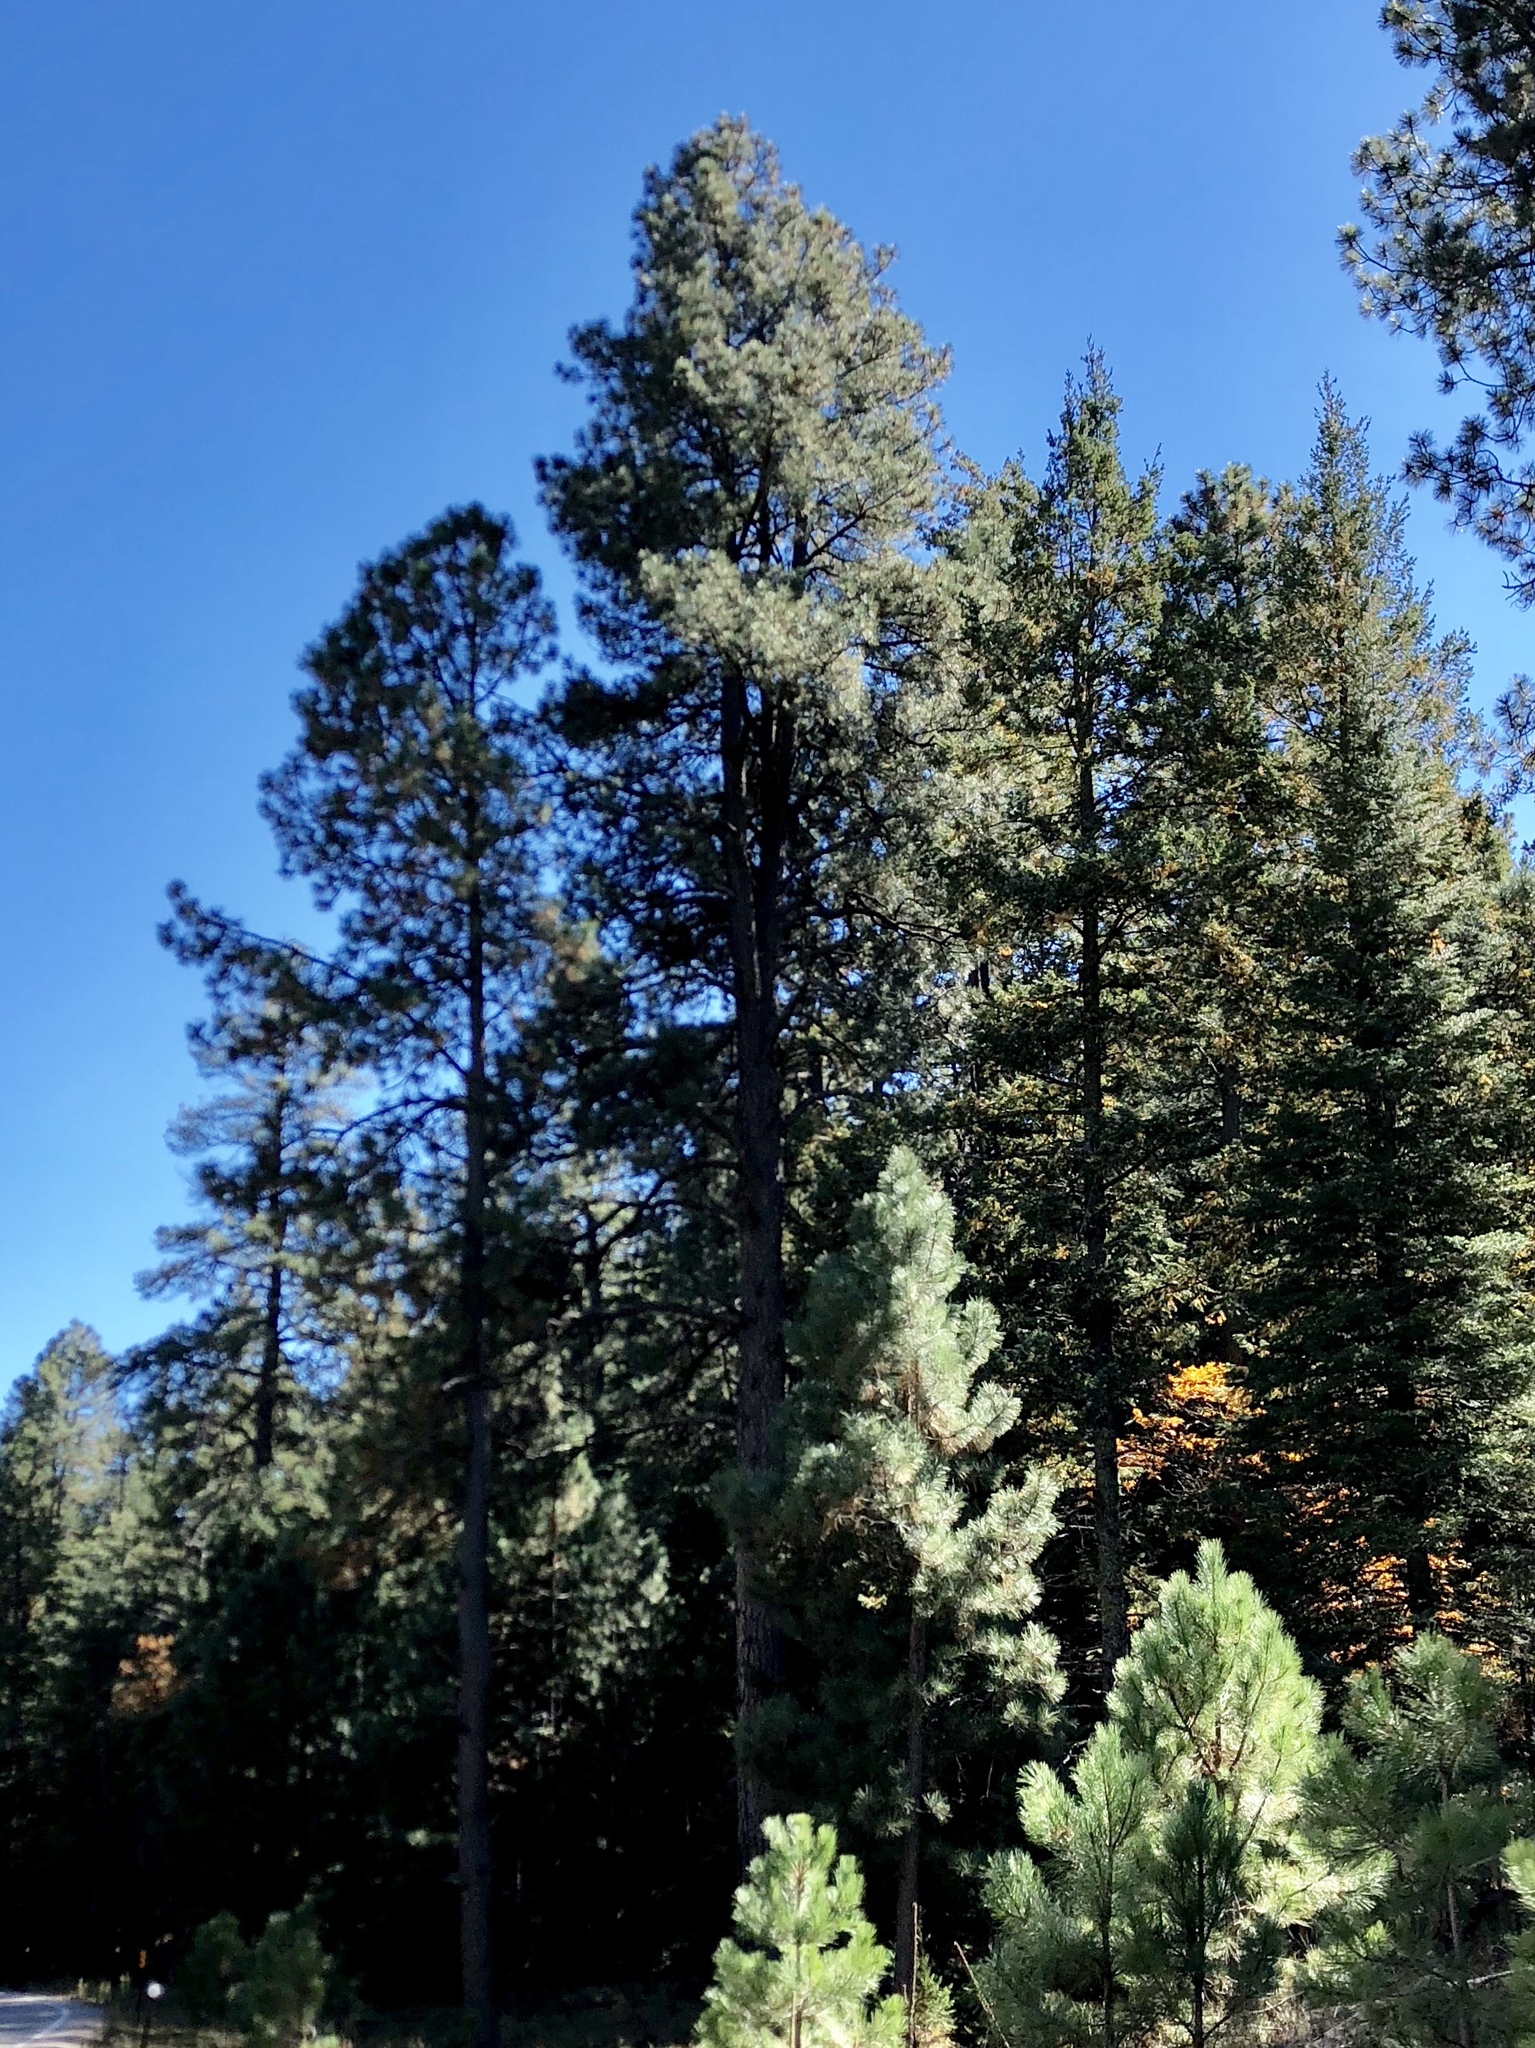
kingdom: Plantae
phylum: Tracheophyta
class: Pinopsida
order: Pinales
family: Pinaceae
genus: Pinus
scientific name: Pinus ponderosa
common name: Western yellow-pine
